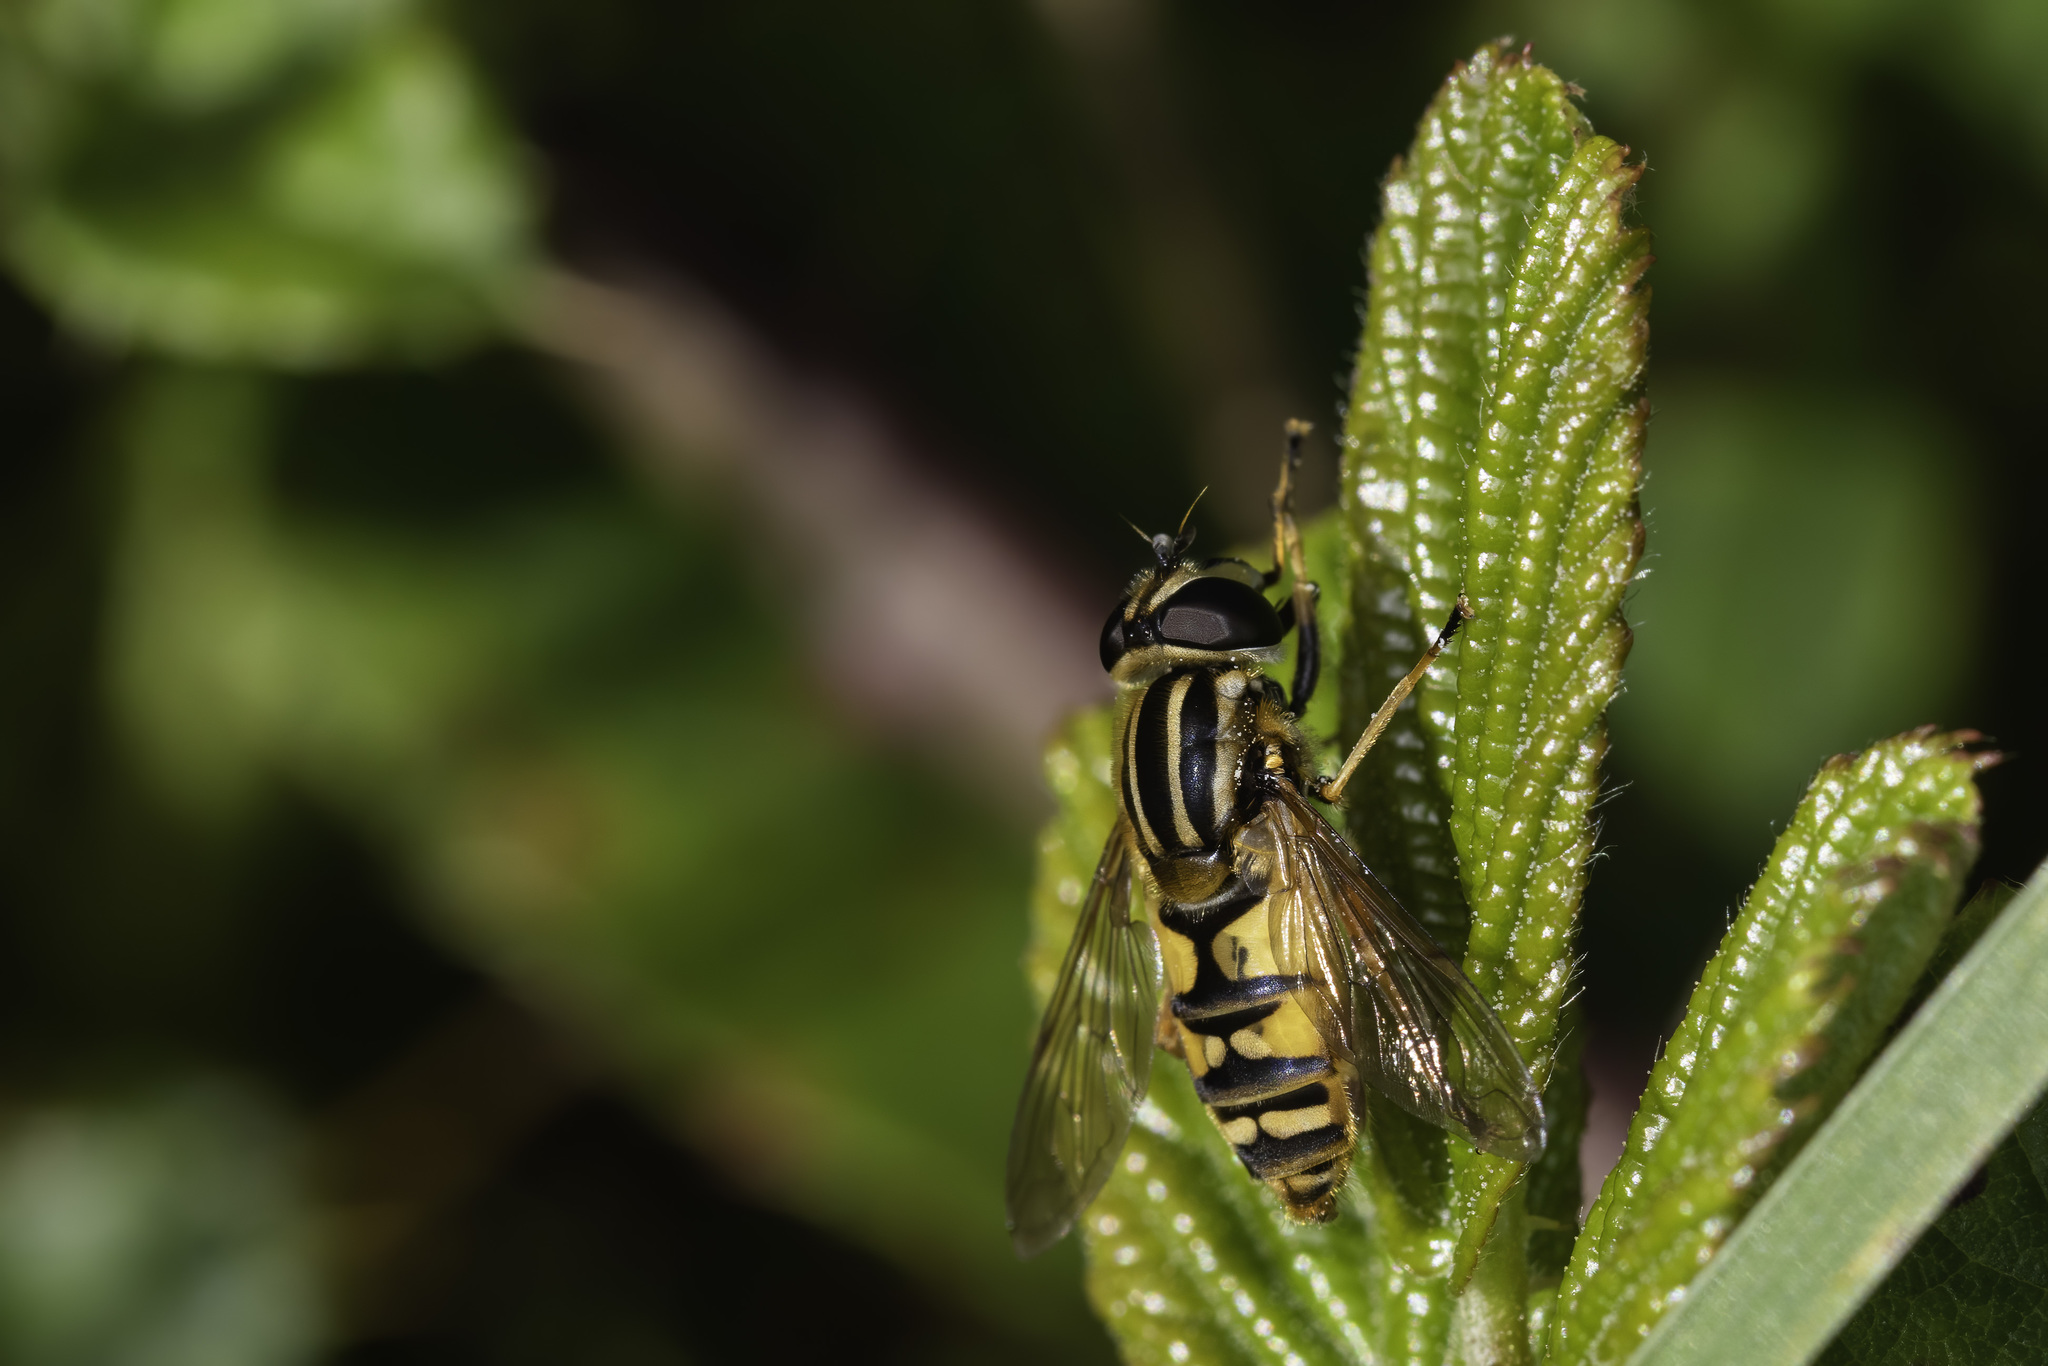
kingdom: Animalia
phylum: Arthropoda
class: Insecta
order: Diptera
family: Syrphidae
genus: Helophilus
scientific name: Helophilus pendulus
